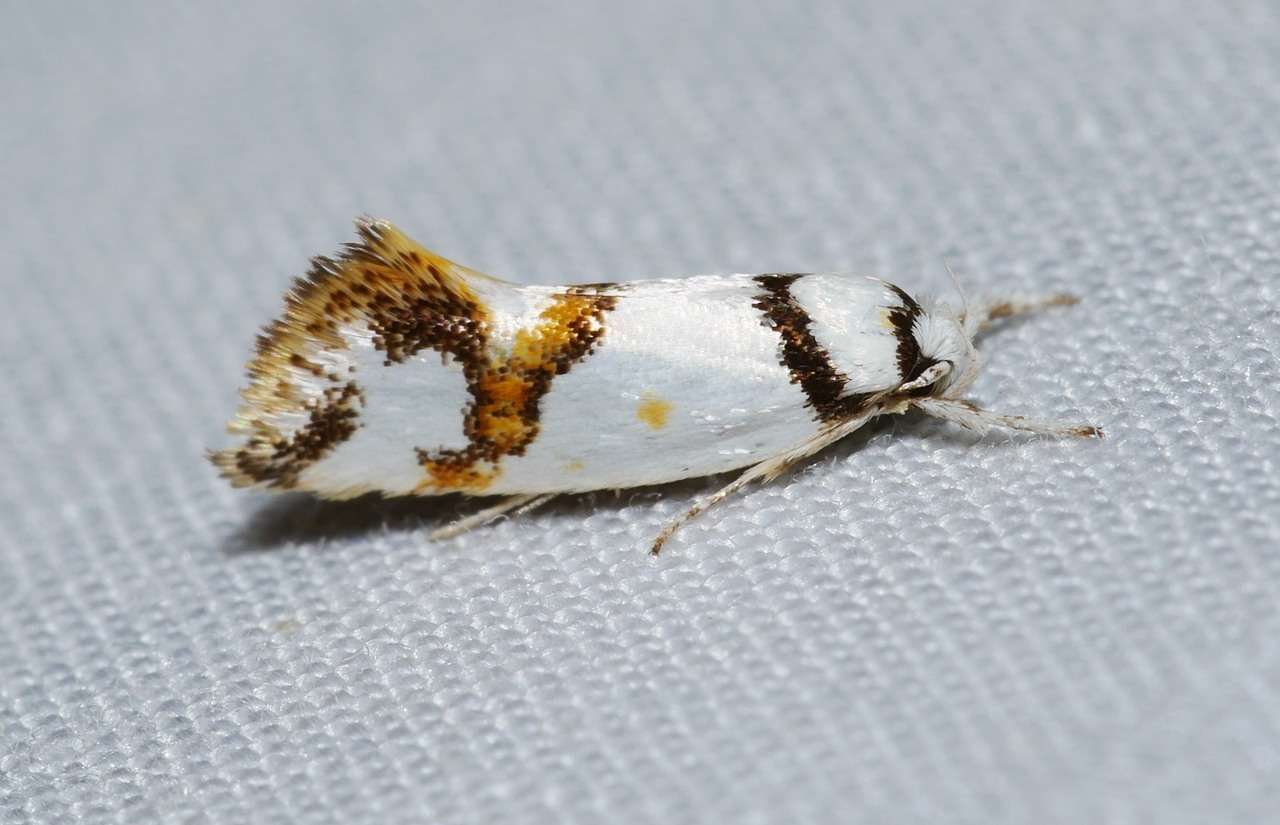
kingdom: Animalia
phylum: Arthropoda
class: Insecta
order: Lepidoptera
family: Oecophoridae
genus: Lepidotarsa
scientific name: Lepidotarsa habrodelta
